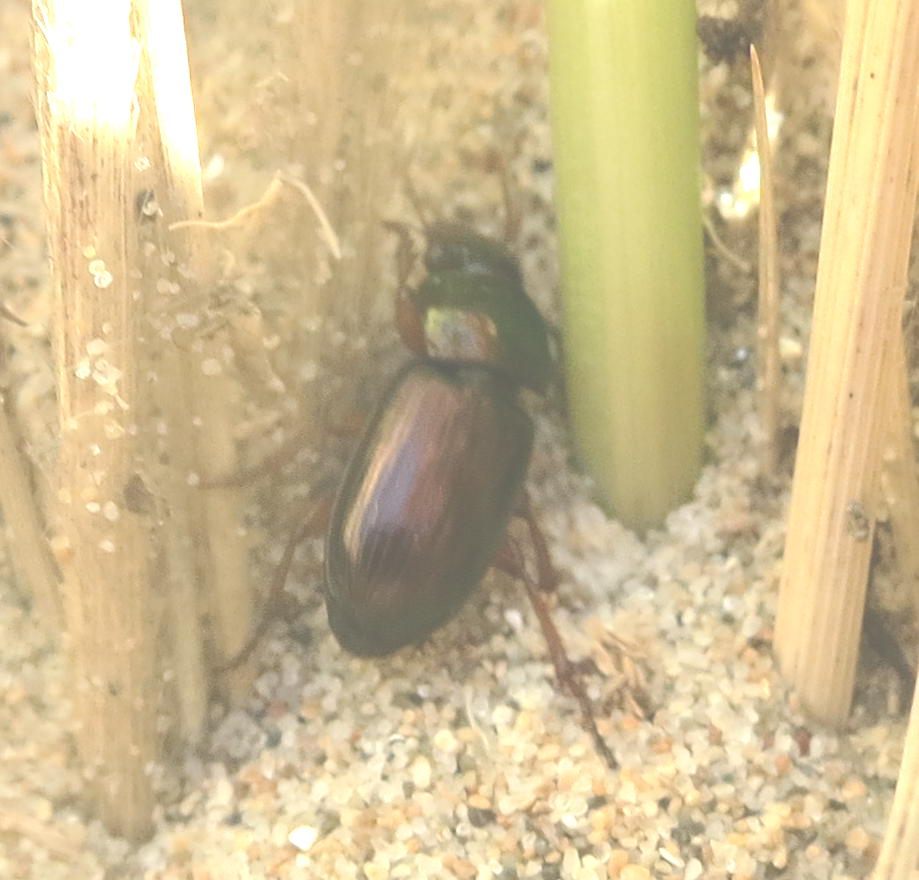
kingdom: Animalia
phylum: Arthropoda
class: Insecta
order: Coleoptera
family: Carabidae
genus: Harpalus
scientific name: Harpalus affinis
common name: Polychrome harp ground beetle
